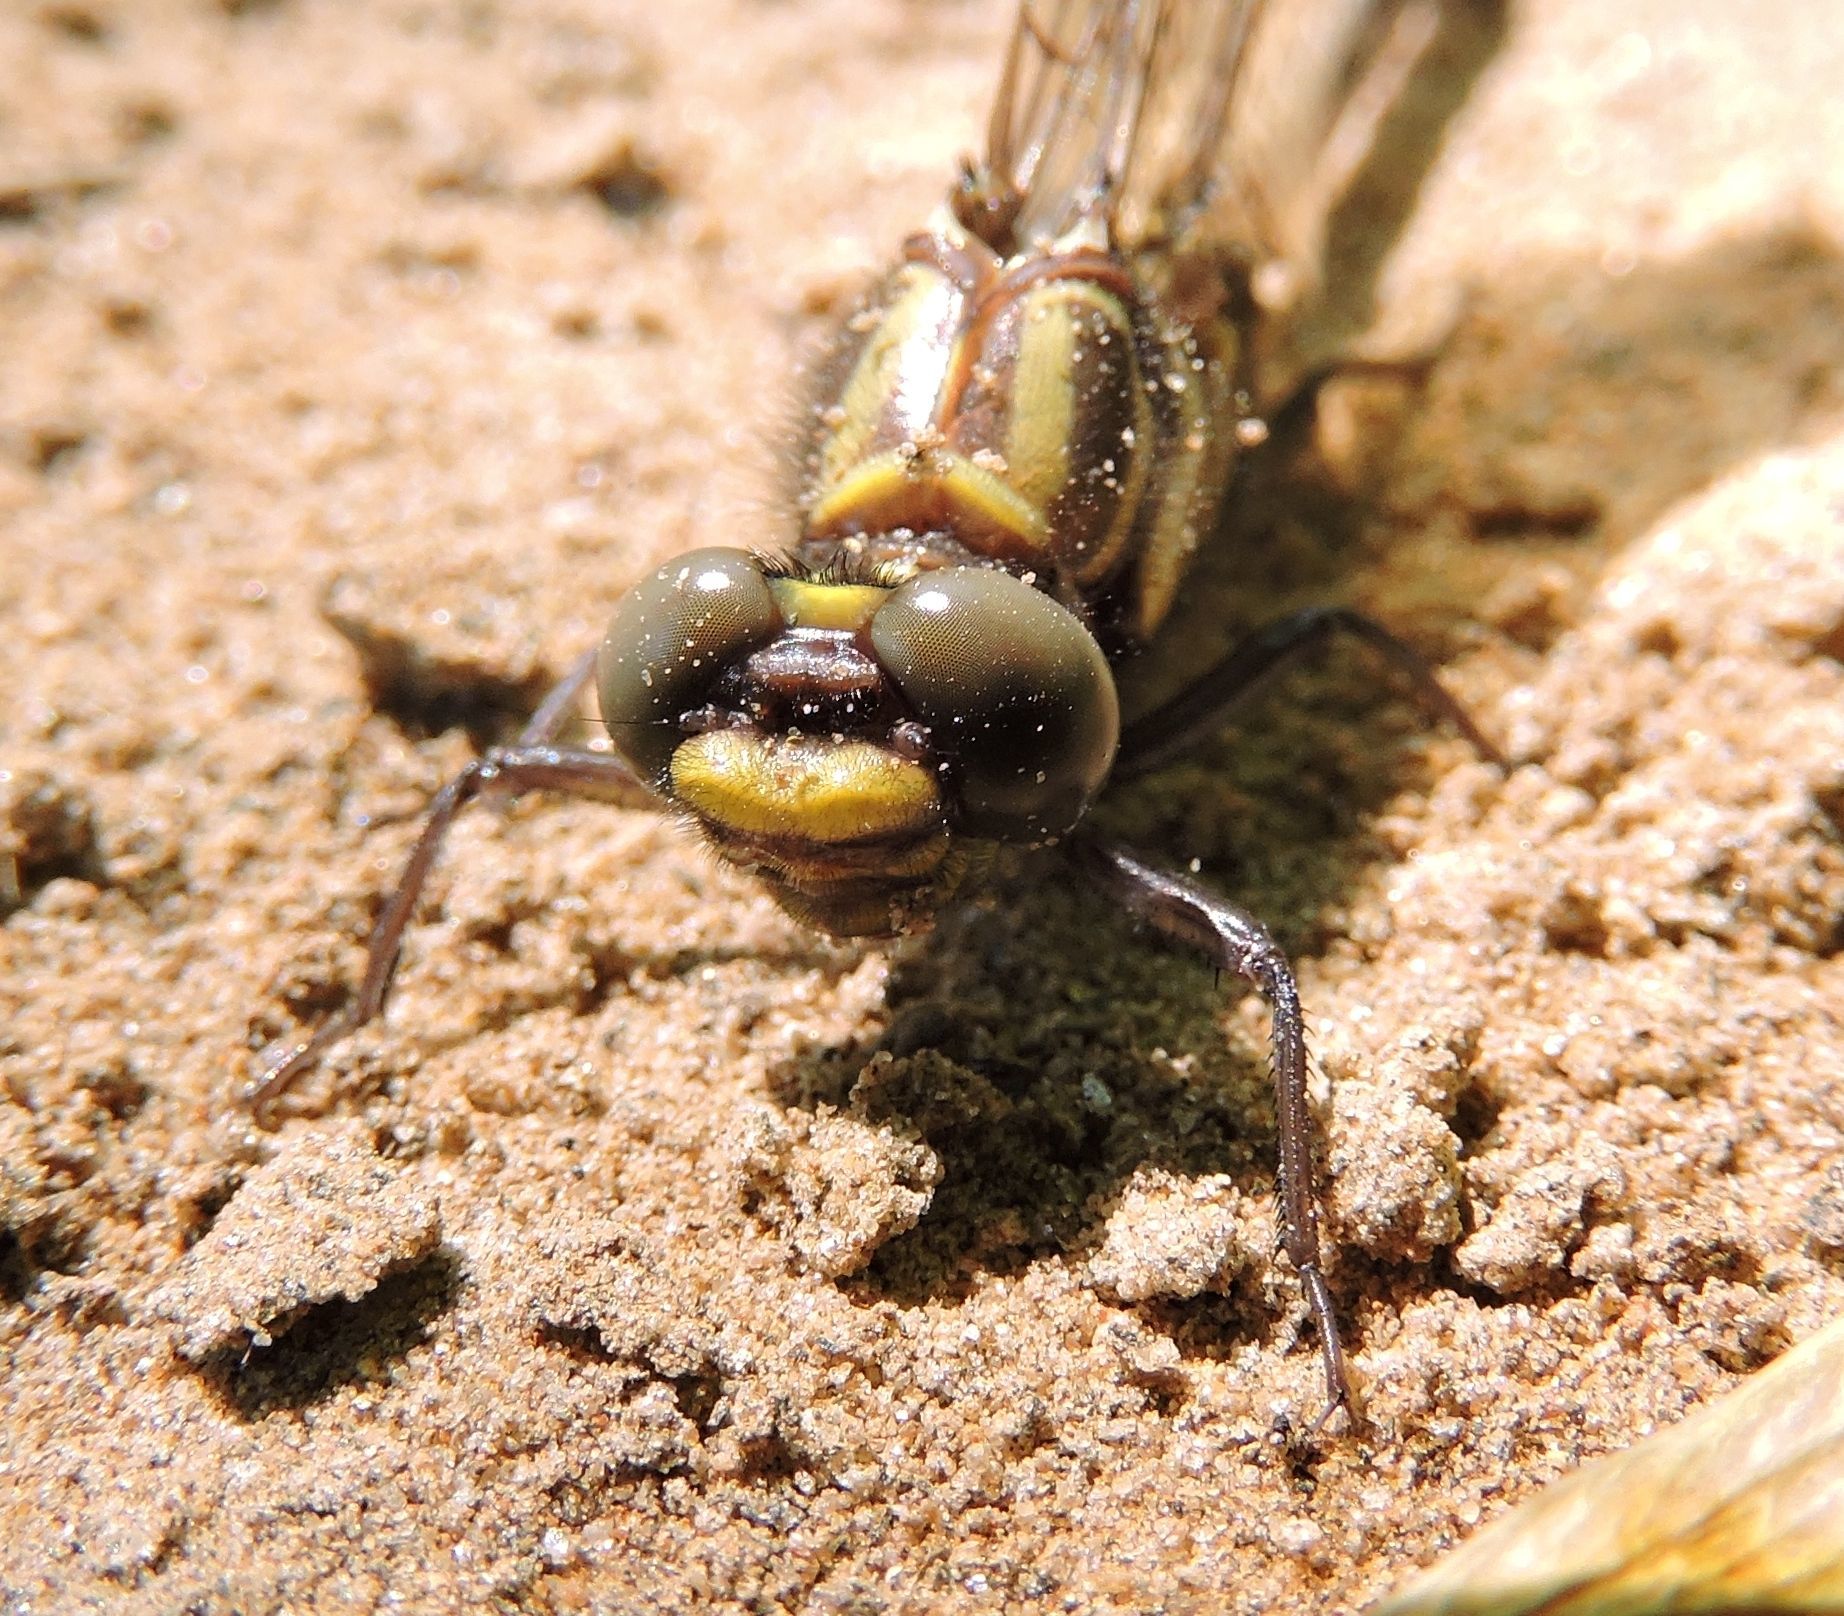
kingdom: Animalia
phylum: Arthropoda
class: Insecta
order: Odonata
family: Gomphidae
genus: Gomphurus
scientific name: Gomphurus vastus
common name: Cobra clubtail
